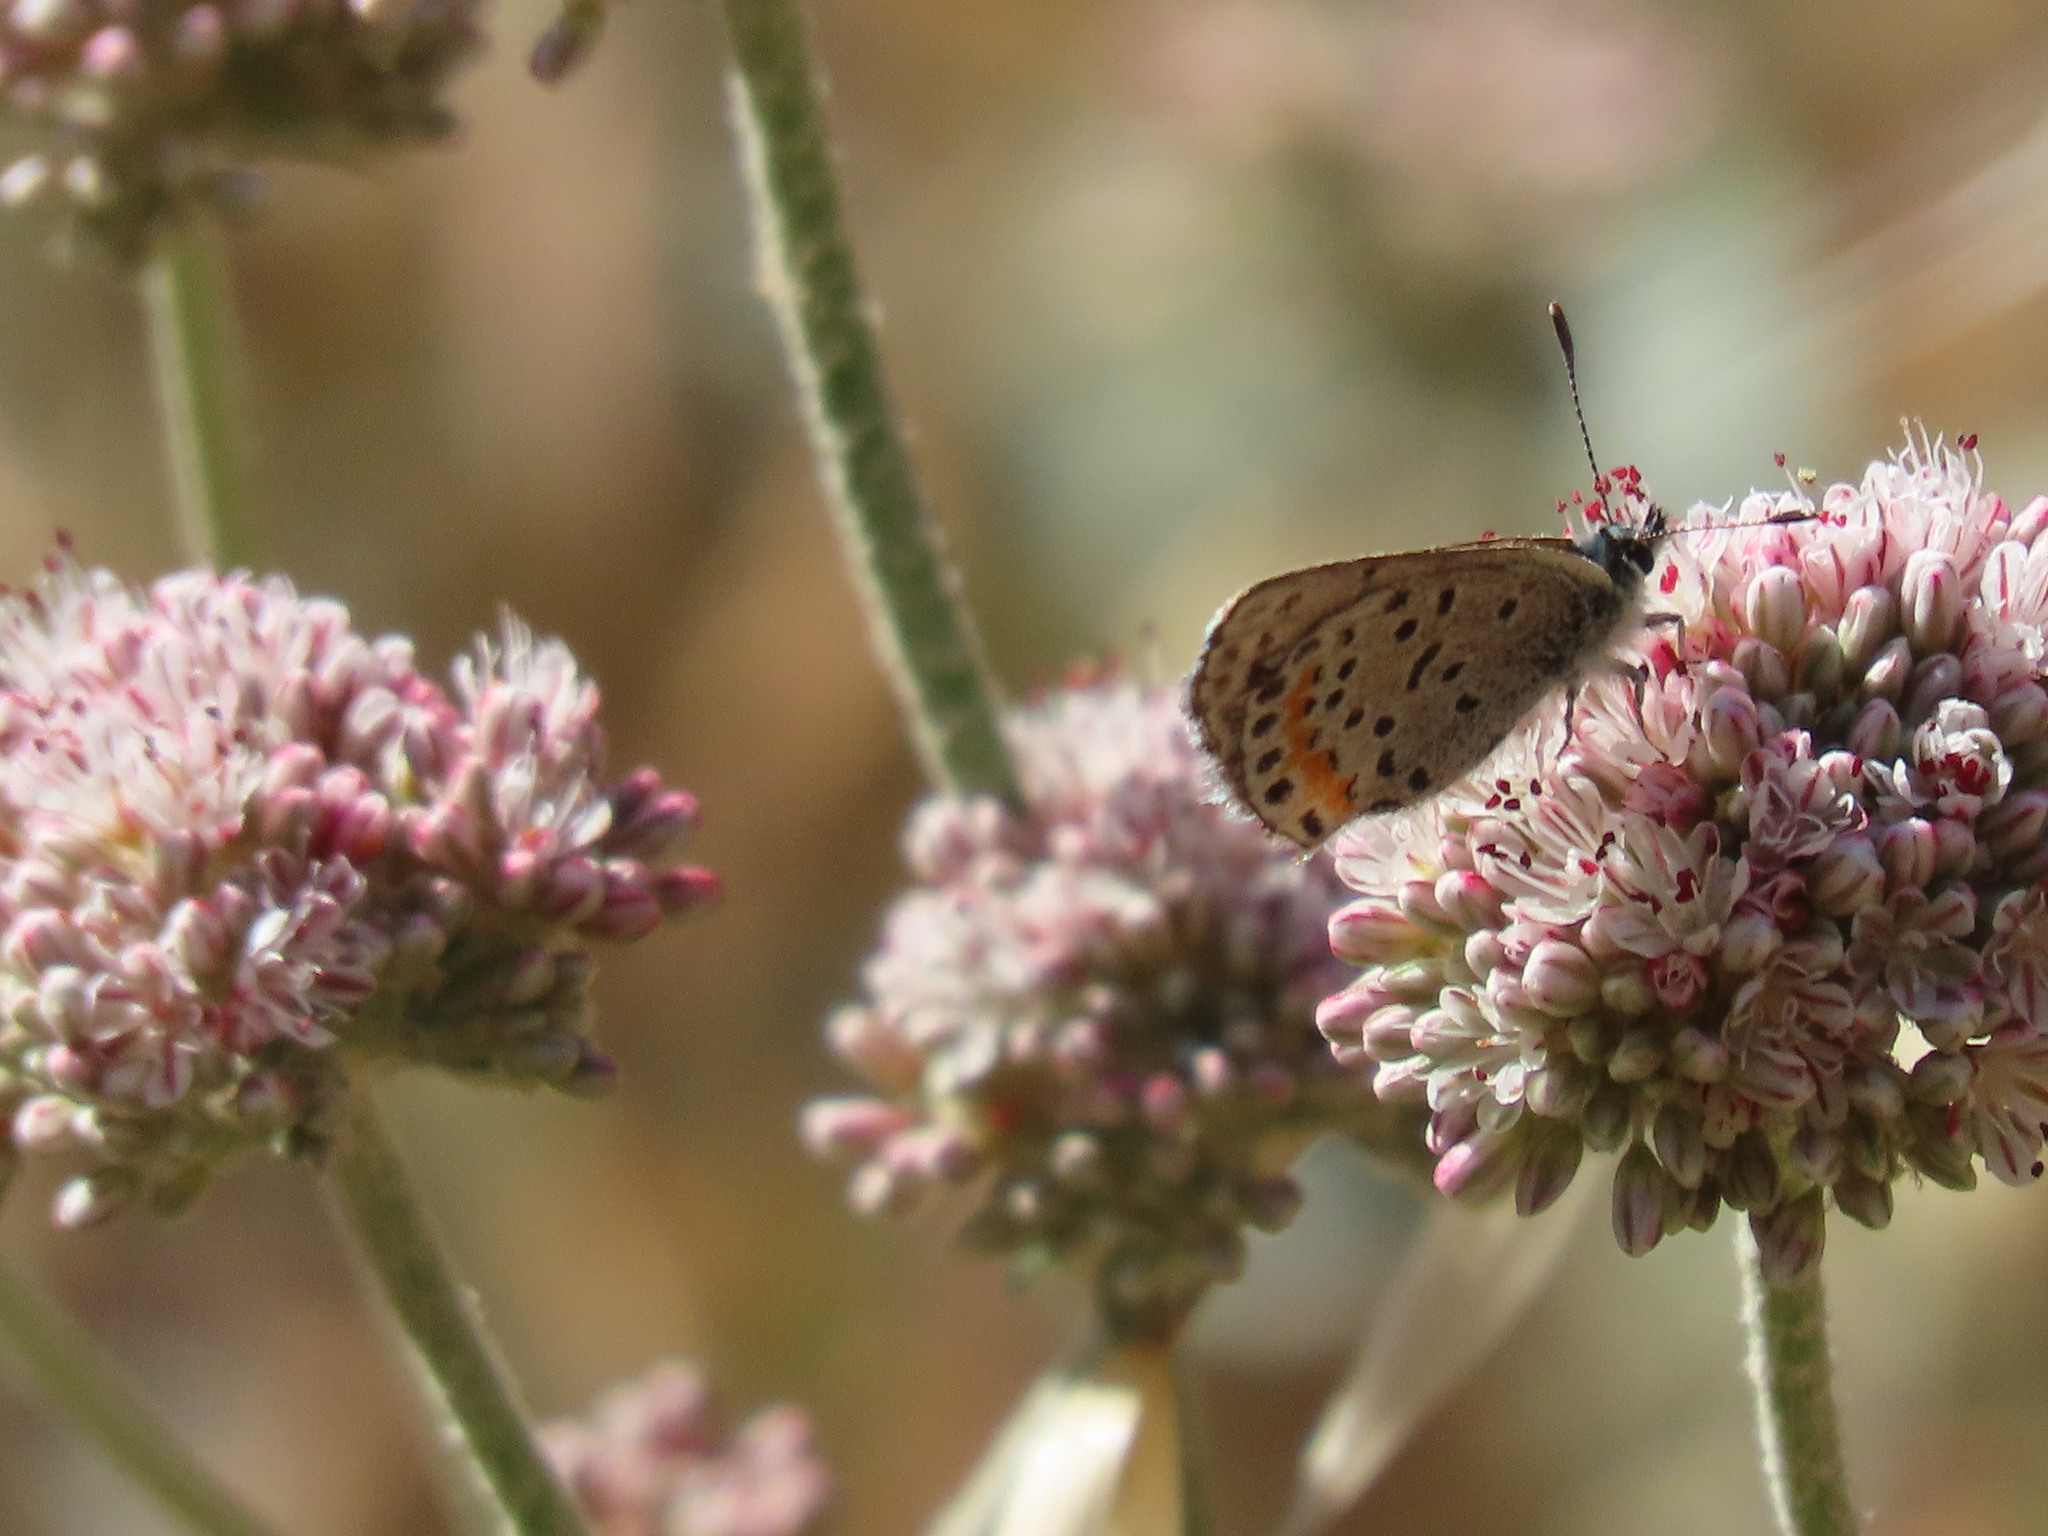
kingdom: Animalia
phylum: Arthropoda
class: Insecta
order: Lepidoptera
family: Lycaenidae
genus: Euphilotes
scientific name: Euphilotes enoptes
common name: Dotted blue
